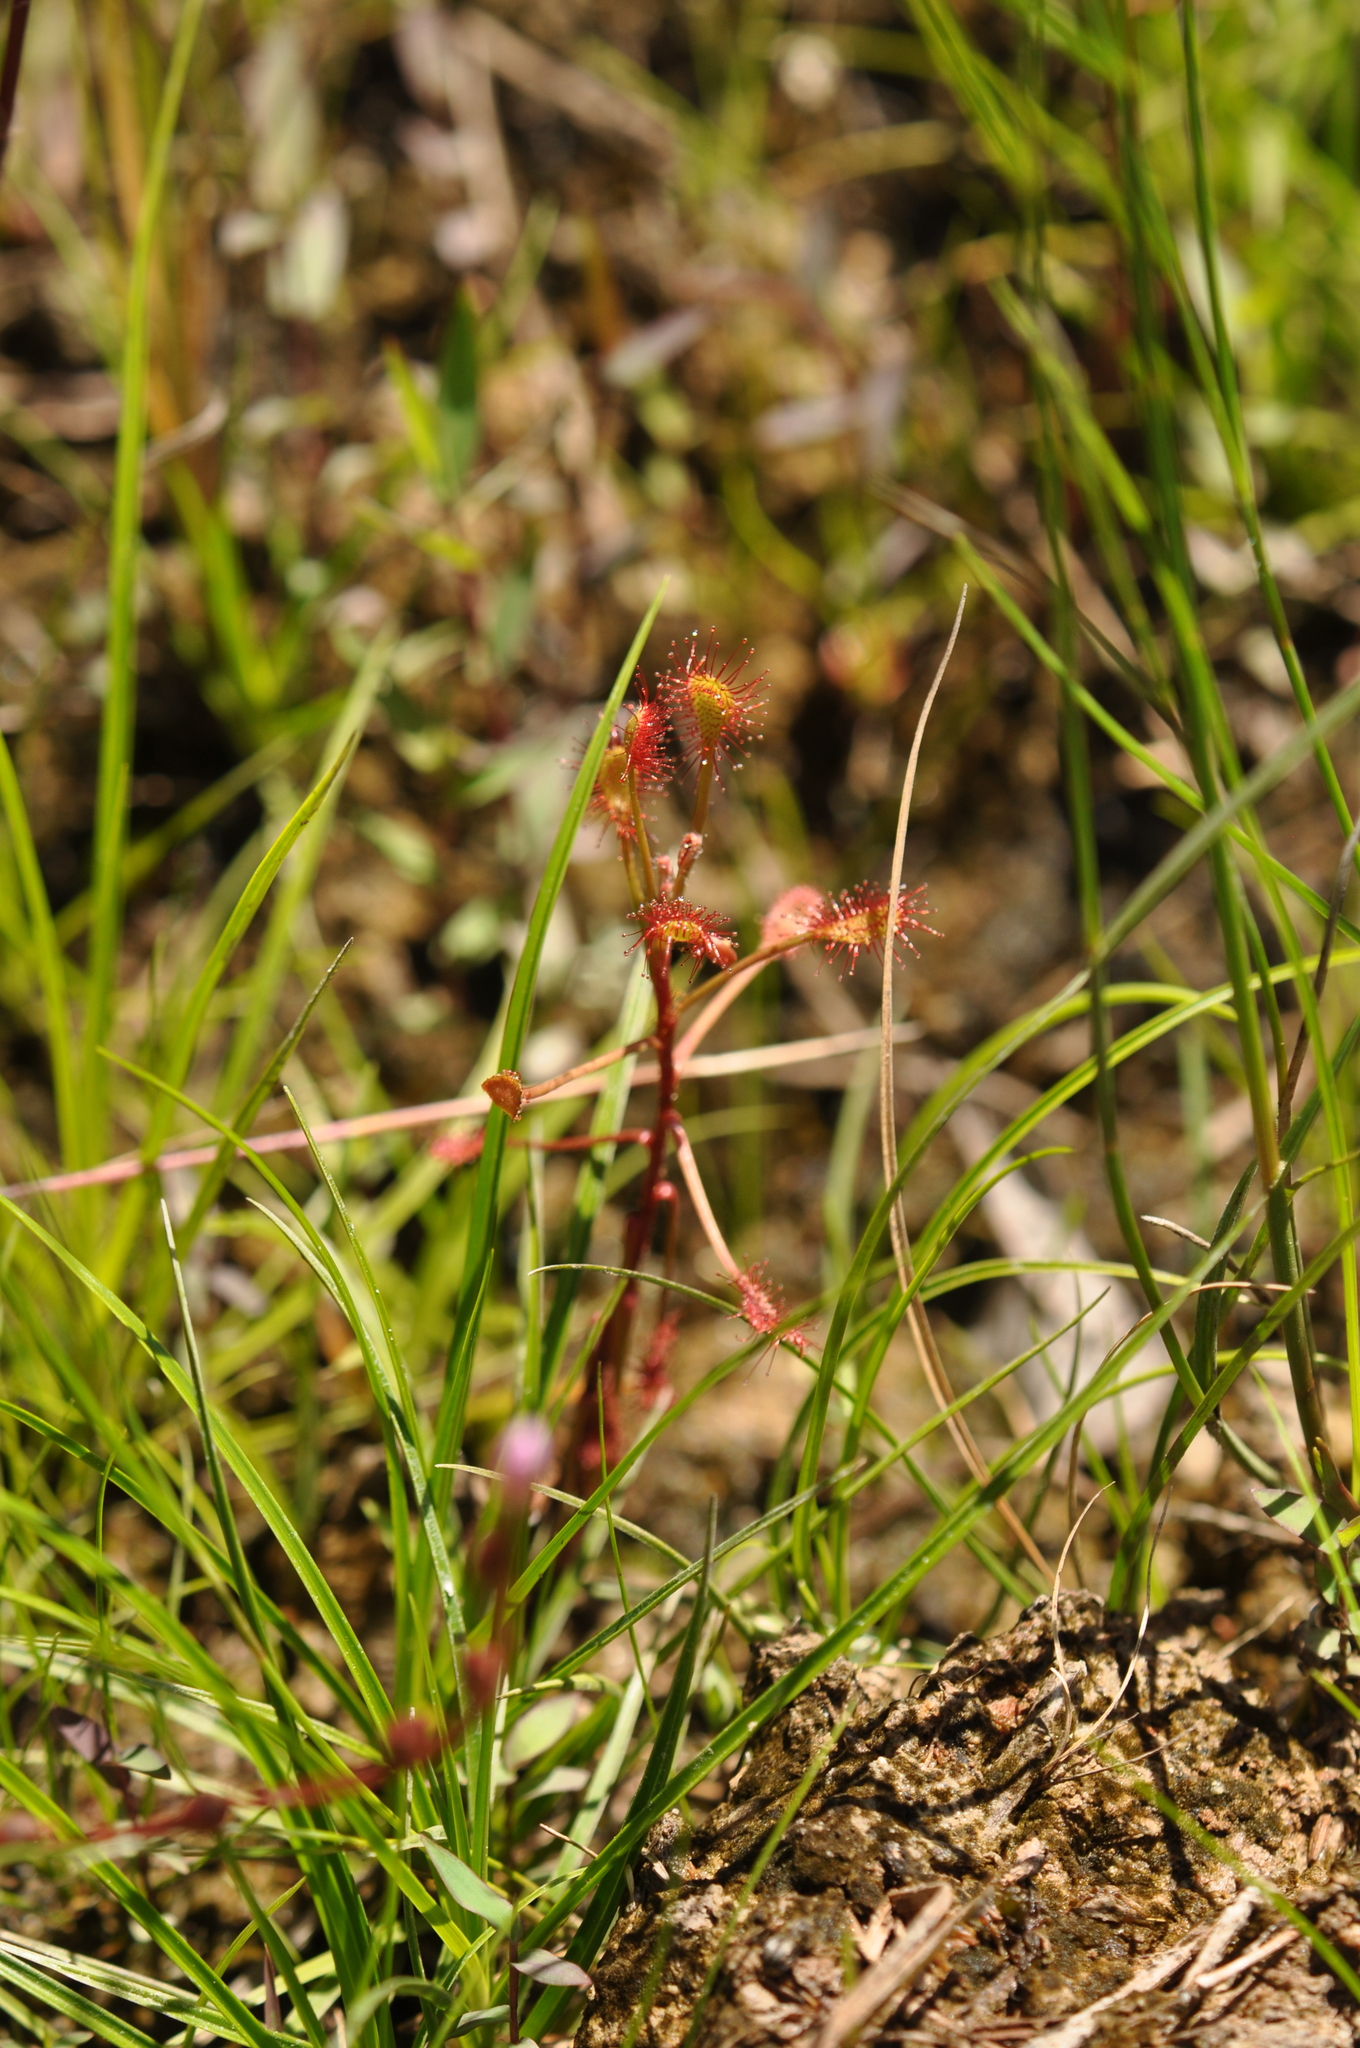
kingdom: Plantae
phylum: Tracheophyta
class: Magnoliopsida
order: Caryophyllales
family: Droseraceae
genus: Drosera
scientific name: Drosera madagascariensis
